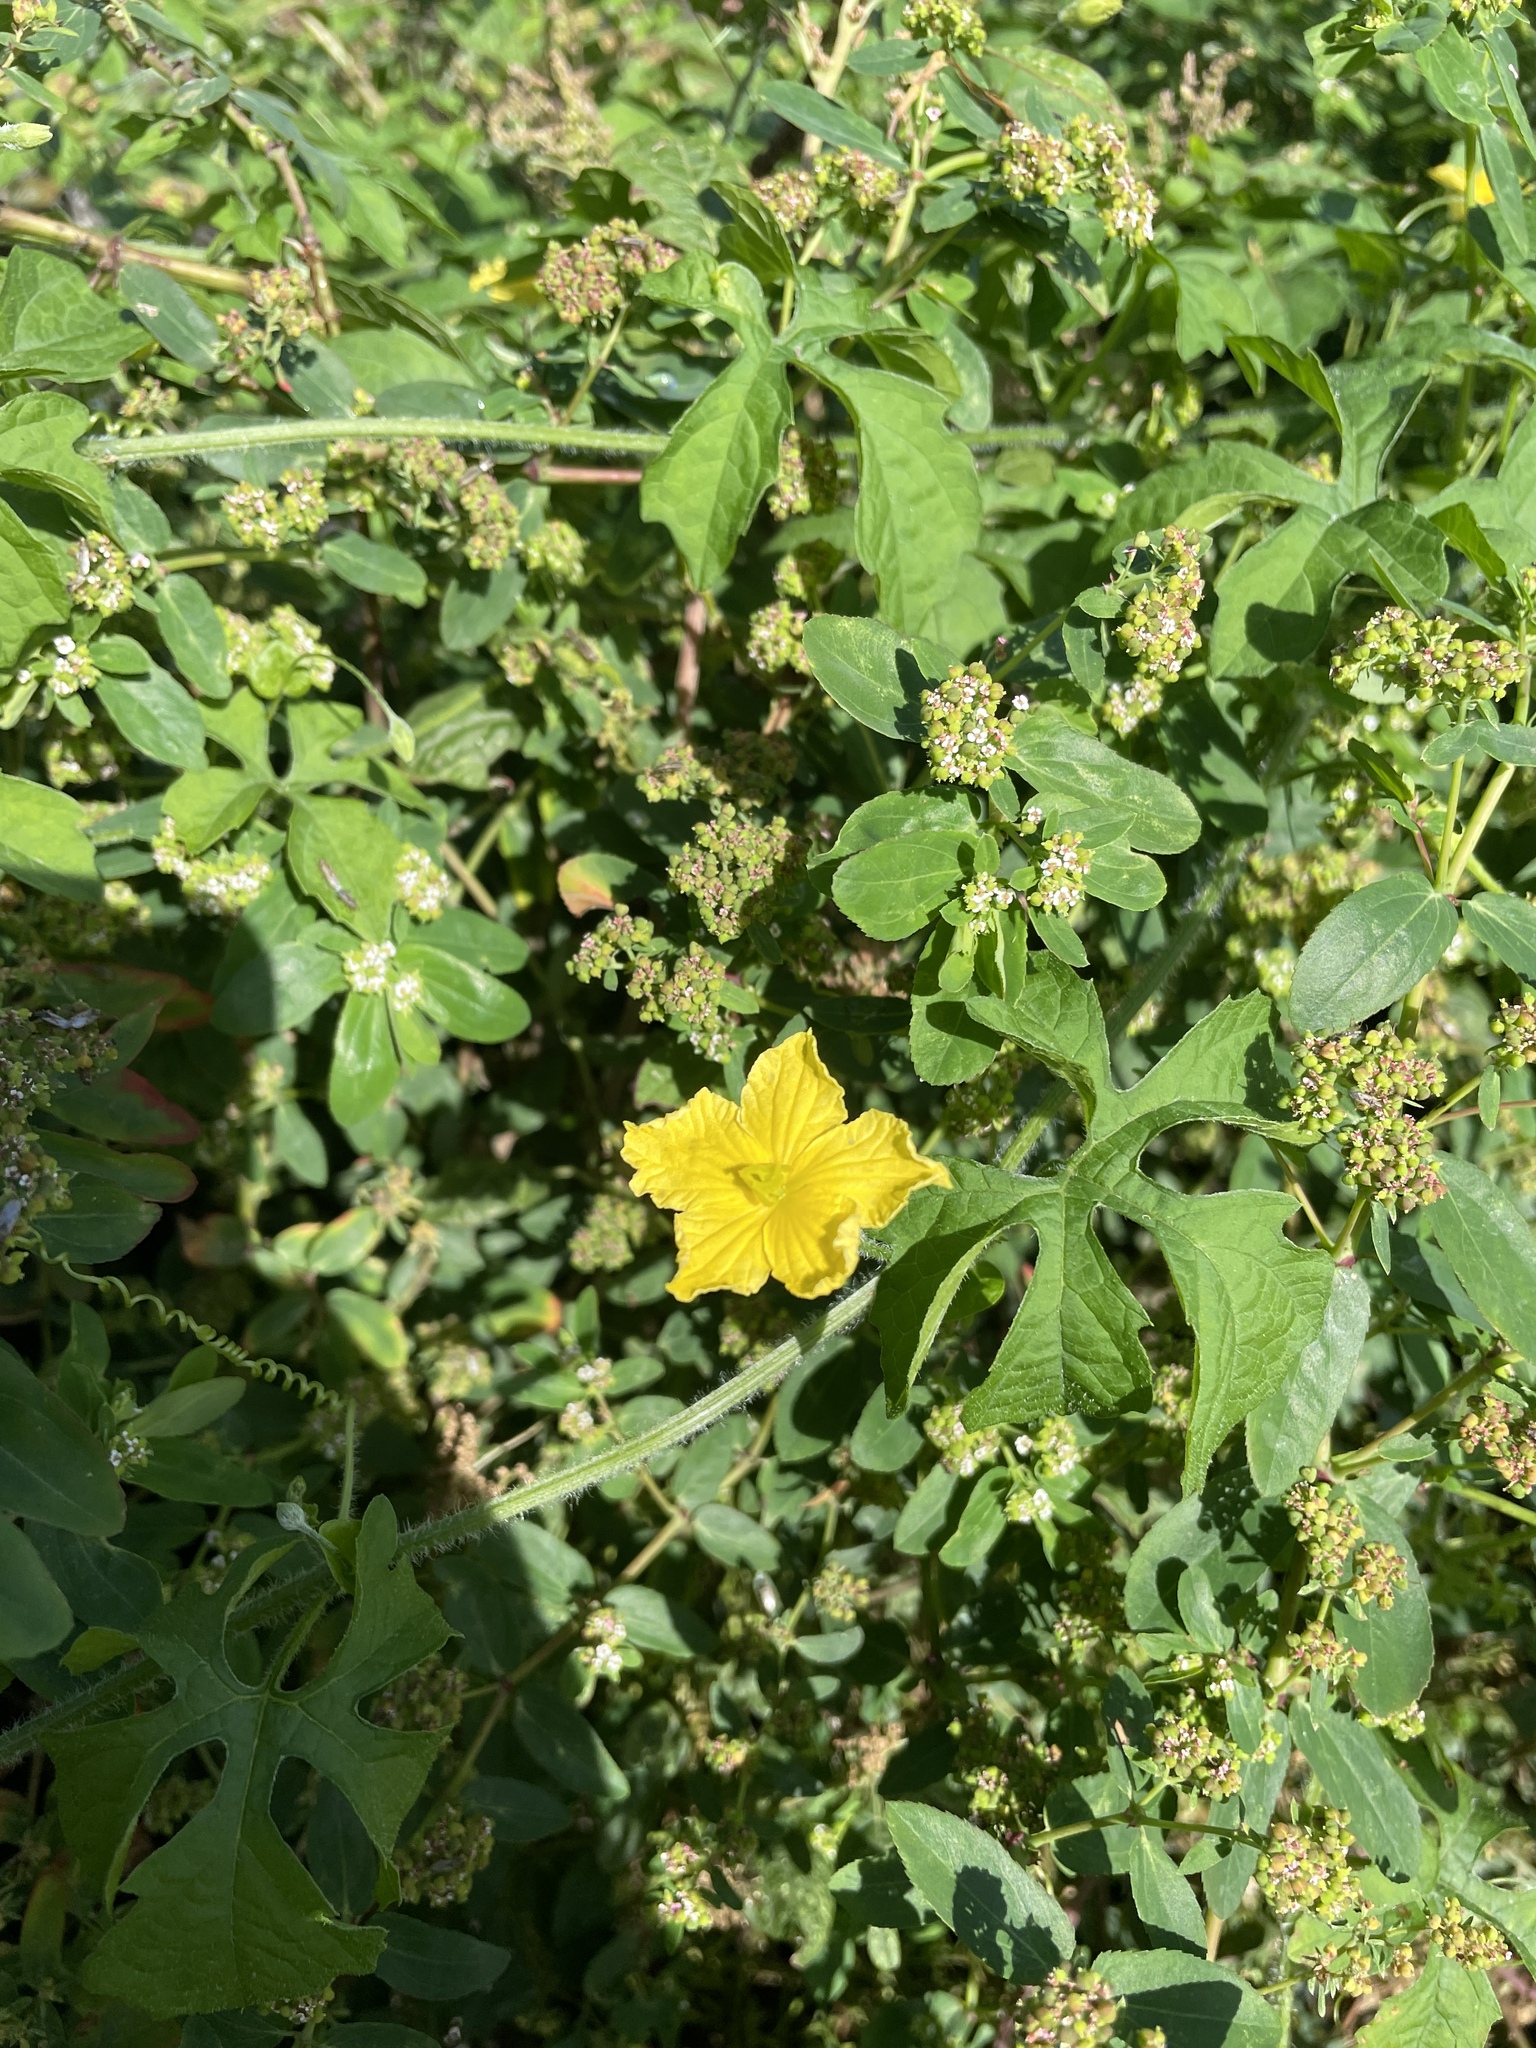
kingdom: Plantae
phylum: Tracheophyta
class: Magnoliopsida
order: Cucurbitales
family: Cucurbitaceae
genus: Momordica
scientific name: Momordica charantia
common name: Balsampear
